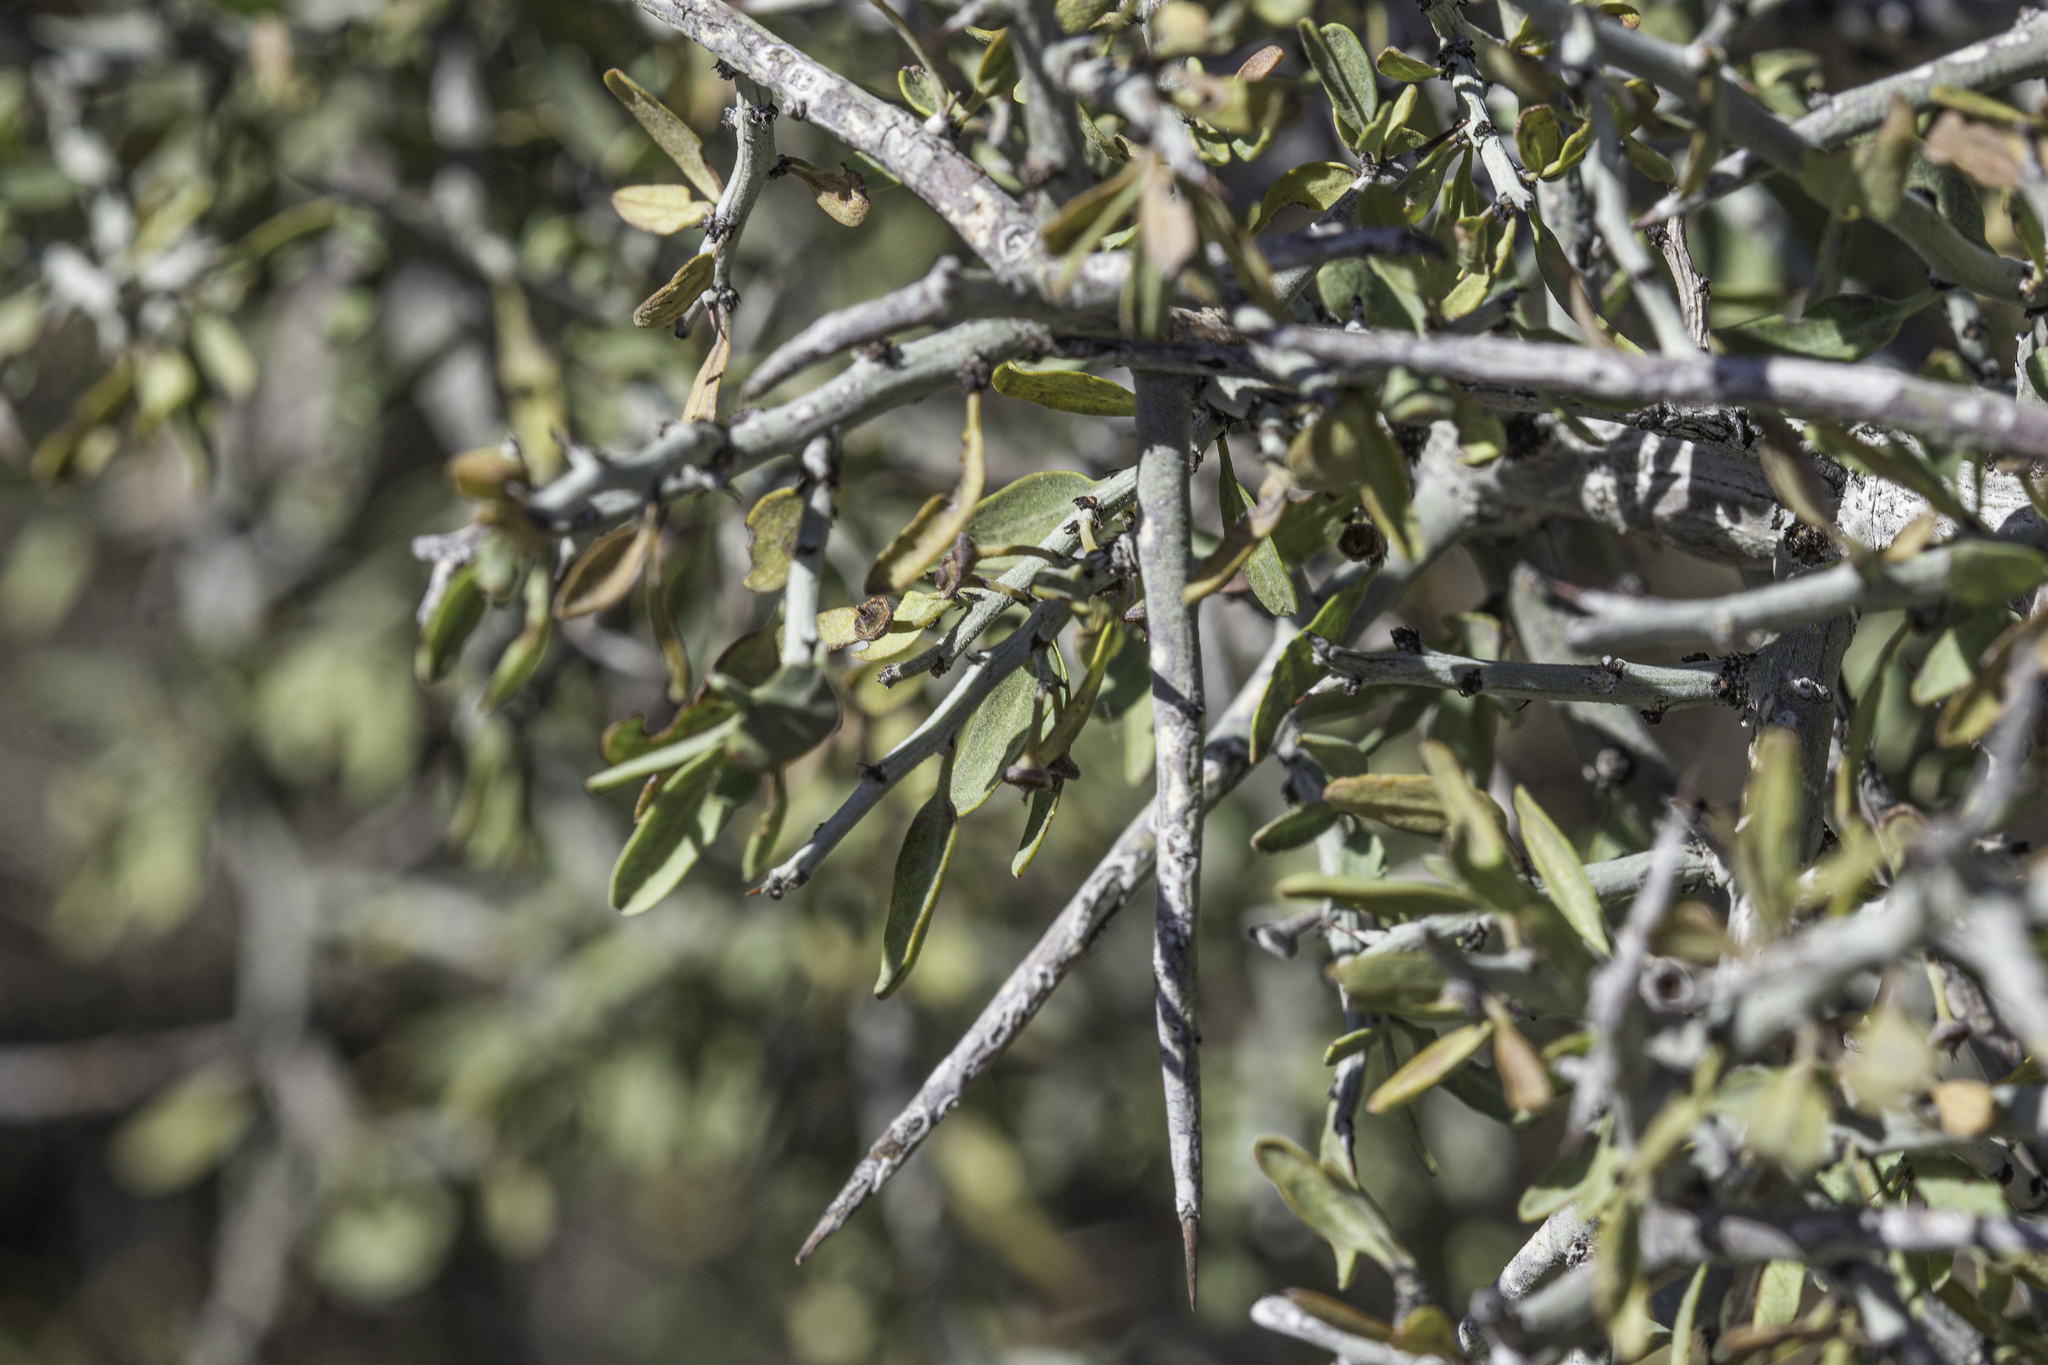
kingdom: Plantae
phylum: Tracheophyta
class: Magnoliopsida
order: Rosales
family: Rhamnaceae
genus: Sarcomphalus
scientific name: Sarcomphalus obtusifolius
